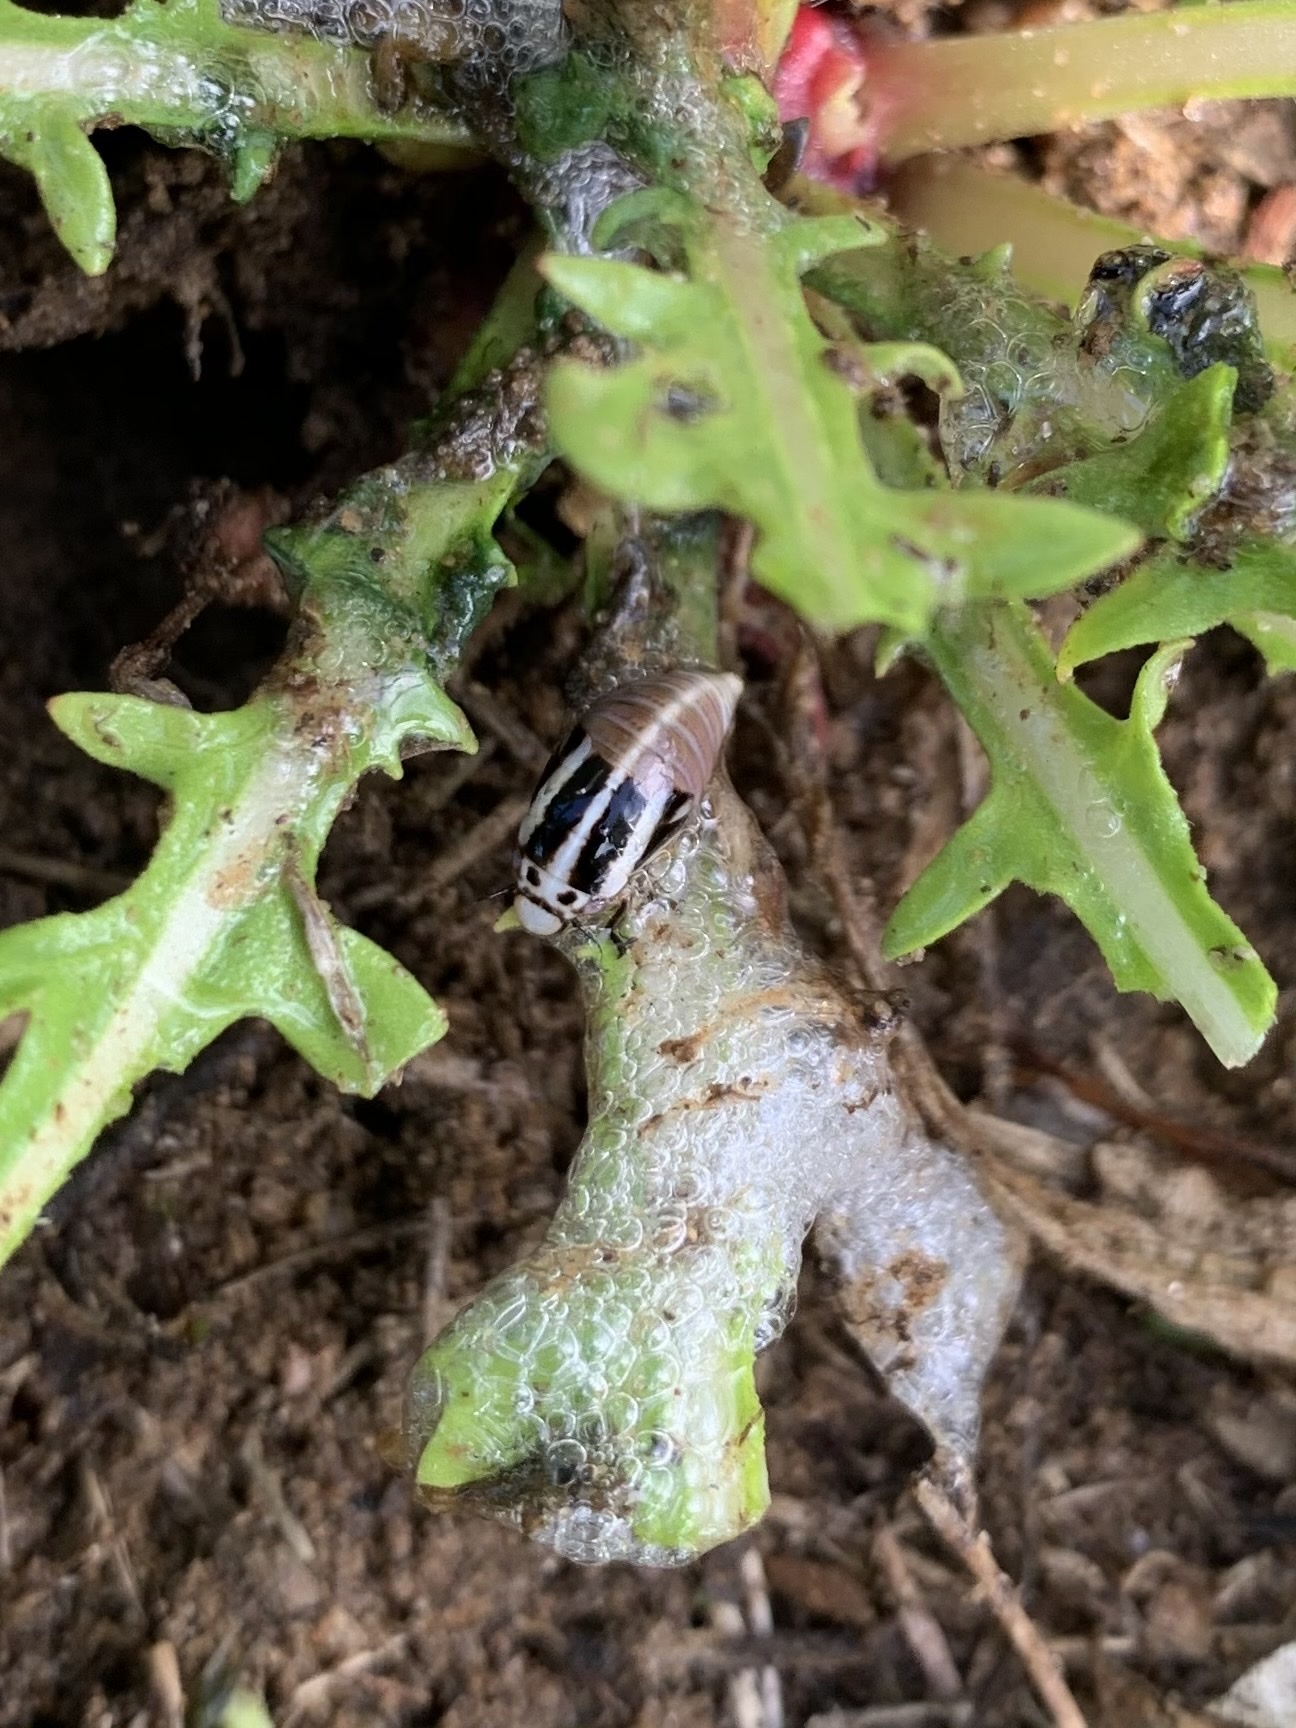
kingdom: Animalia
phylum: Arthropoda
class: Insecta
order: Hemiptera
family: Aphrophoridae
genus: Lepyronia
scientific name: Lepyronia gibbosa
